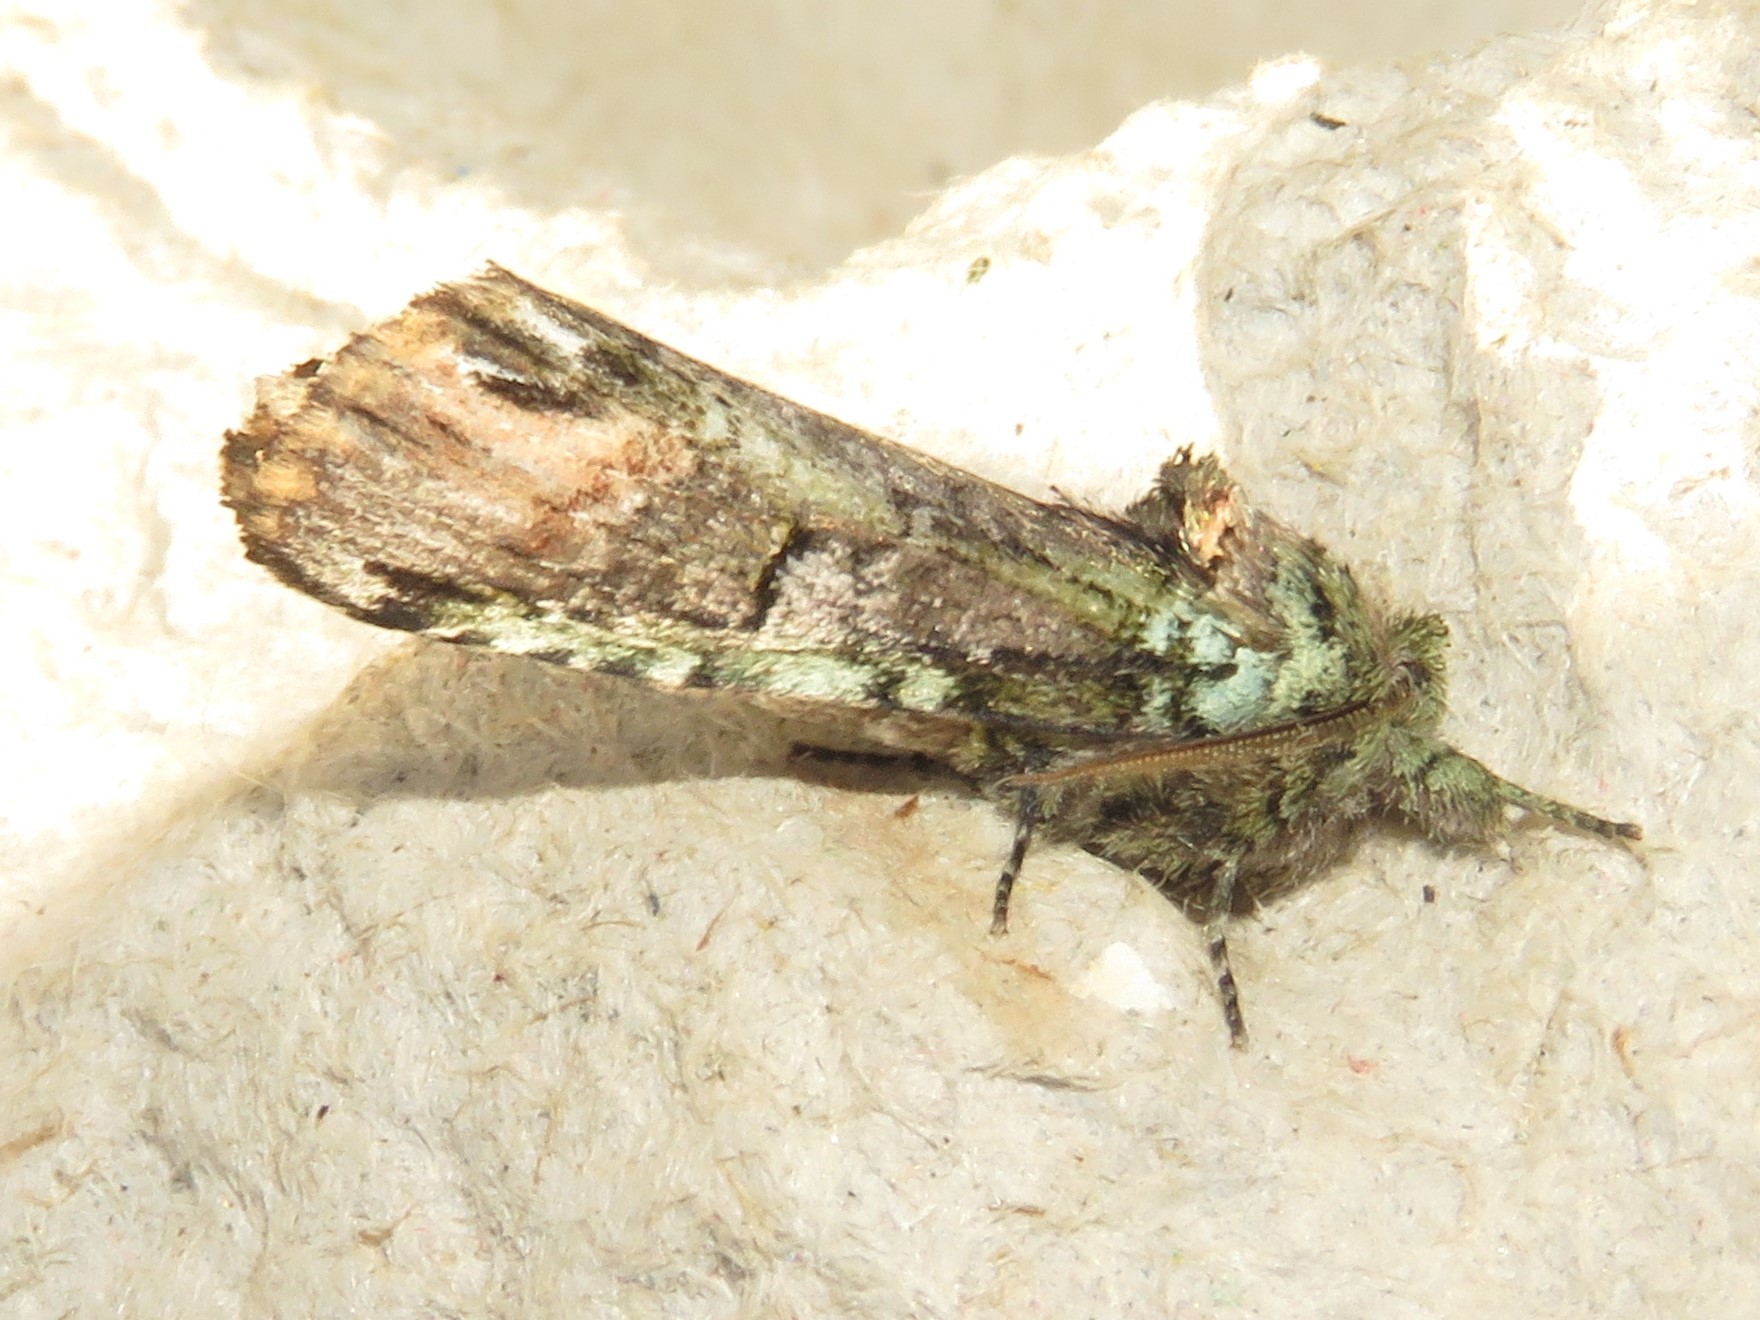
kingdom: Animalia
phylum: Arthropoda
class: Insecta
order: Lepidoptera
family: Notodontidae
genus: Schizura
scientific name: Schizura
